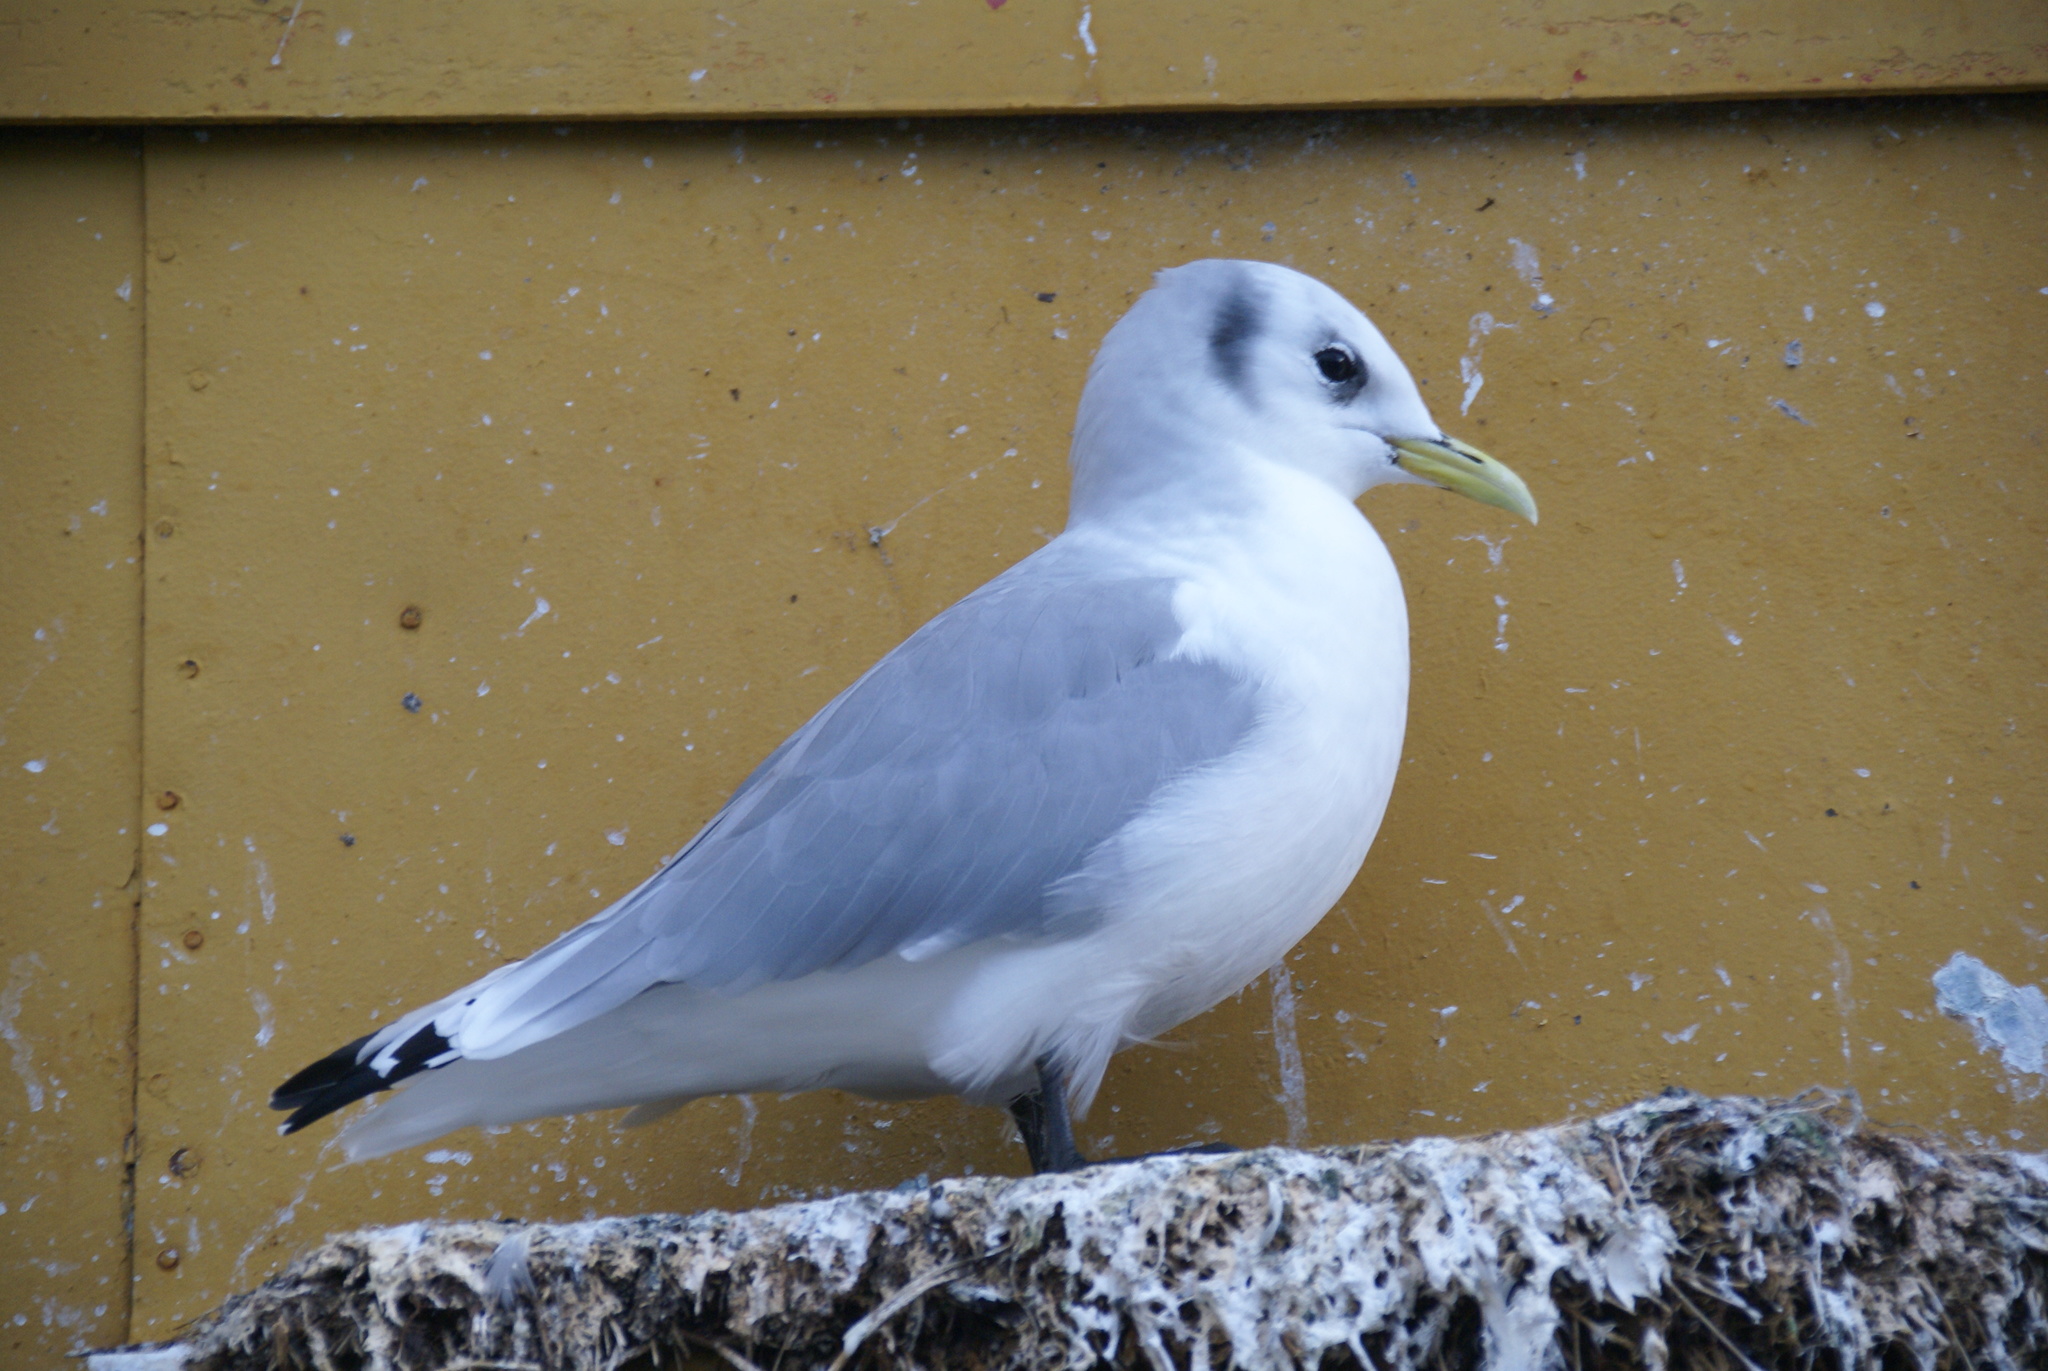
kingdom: Animalia
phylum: Chordata
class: Aves
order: Charadriiformes
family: Laridae
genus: Rissa
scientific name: Rissa tridactyla
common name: Black-legged kittiwake
